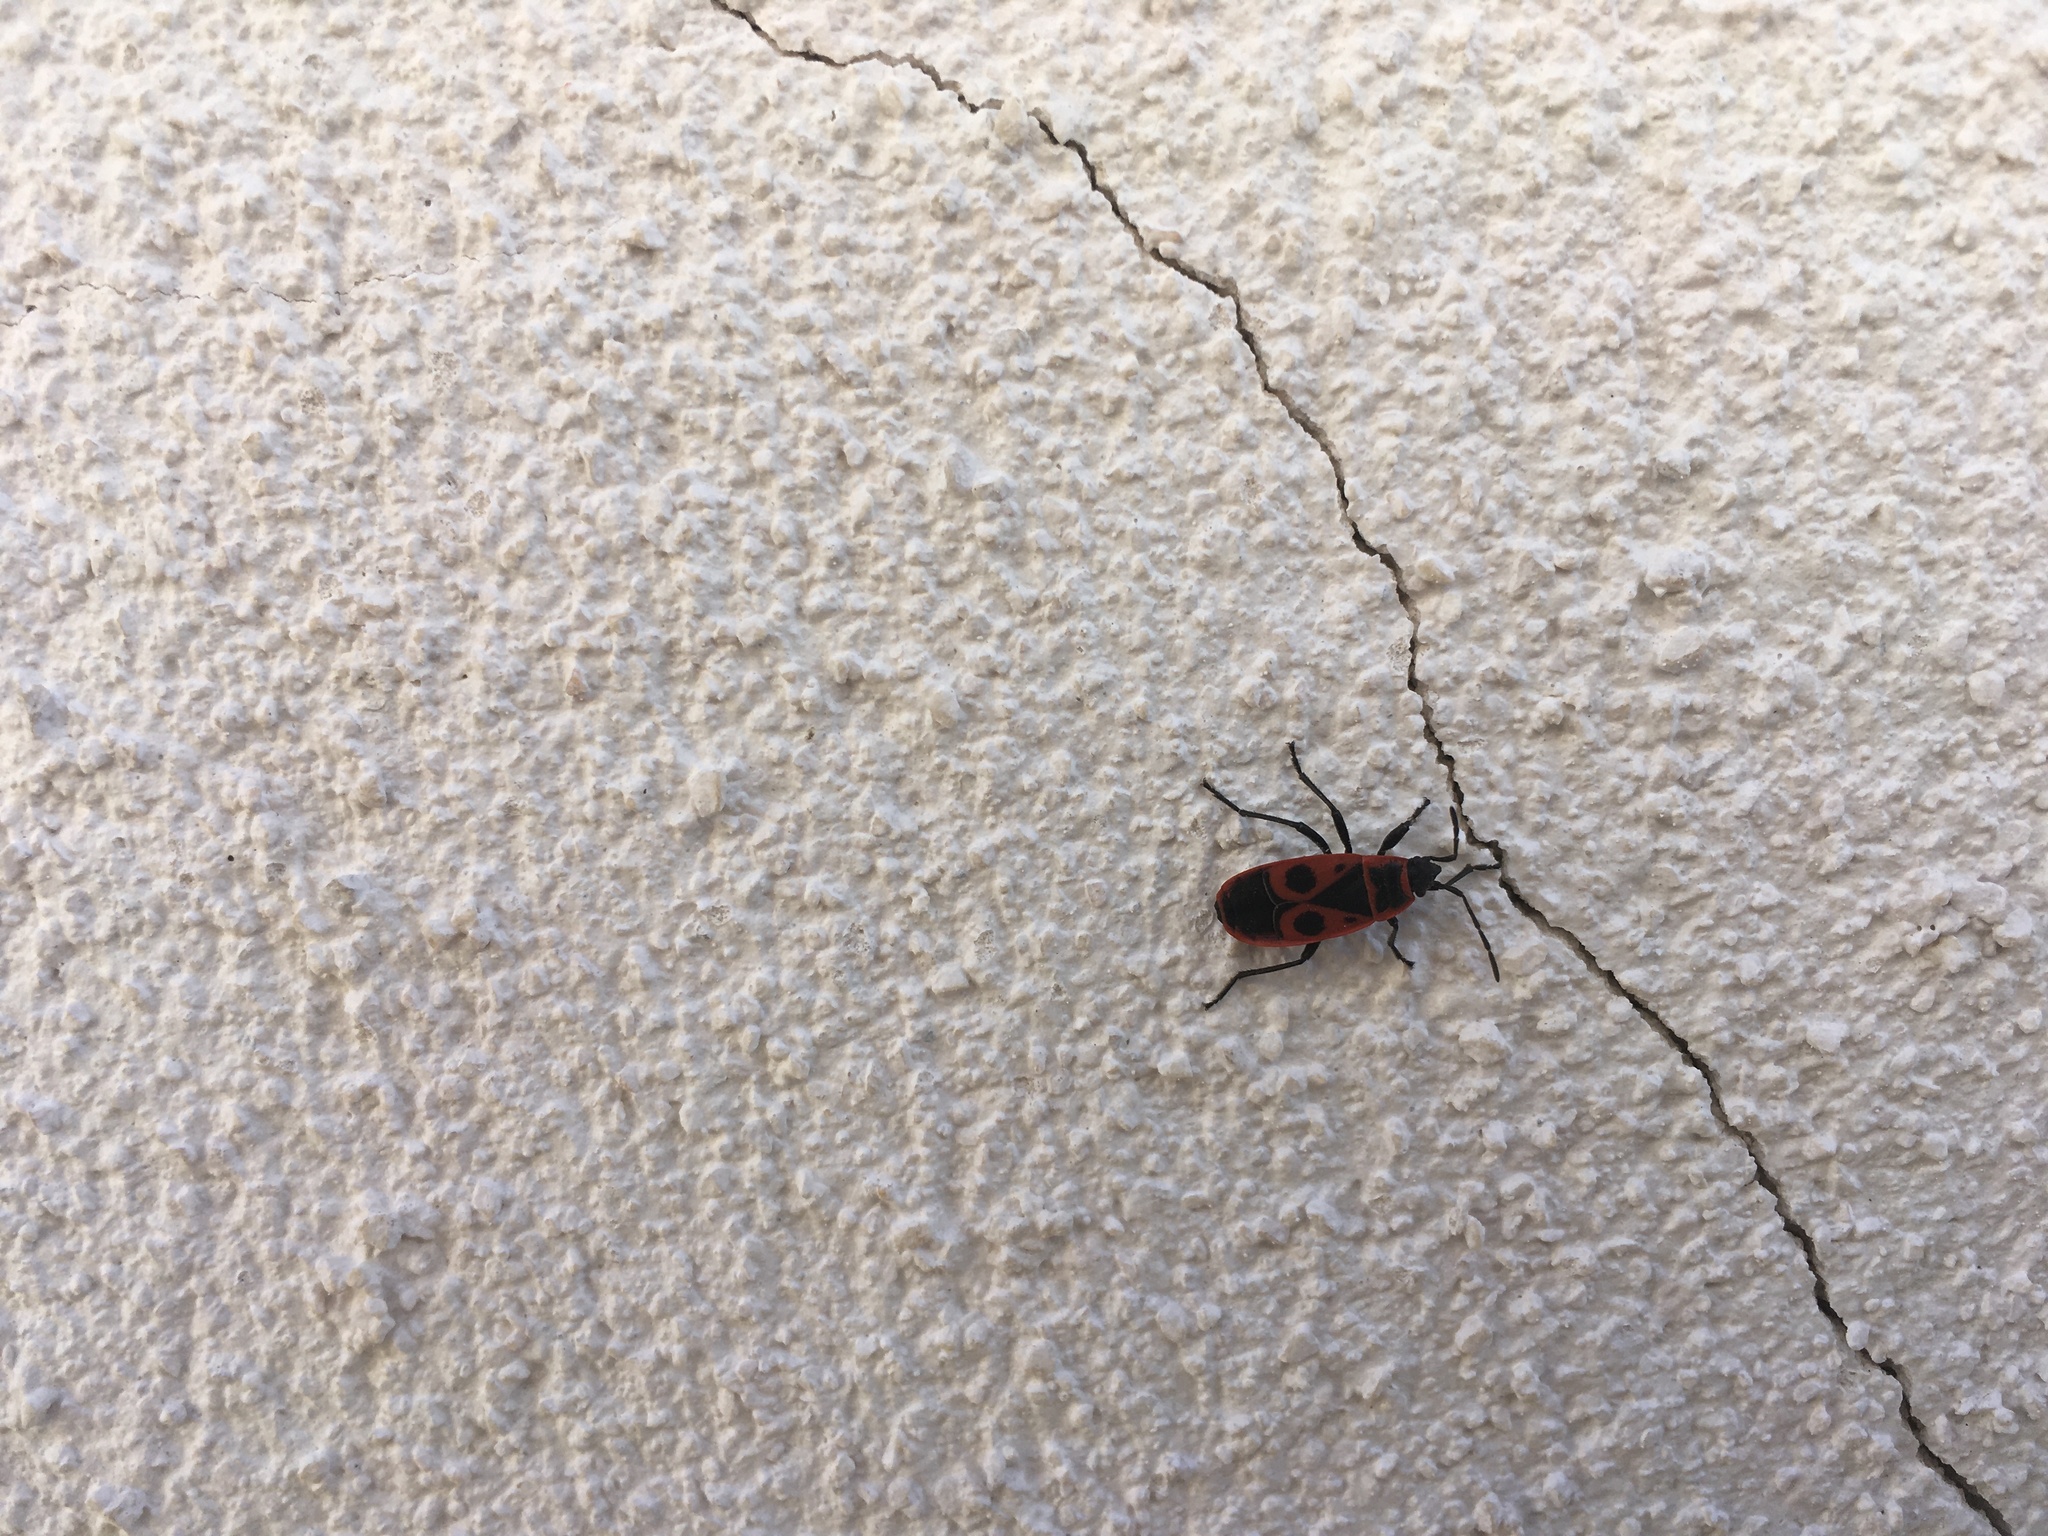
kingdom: Animalia
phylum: Arthropoda
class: Insecta
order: Hemiptera
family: Pyrrhocoridae
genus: Pyrrhocoris
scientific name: Pyrrhocoris apterus
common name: Firebug
